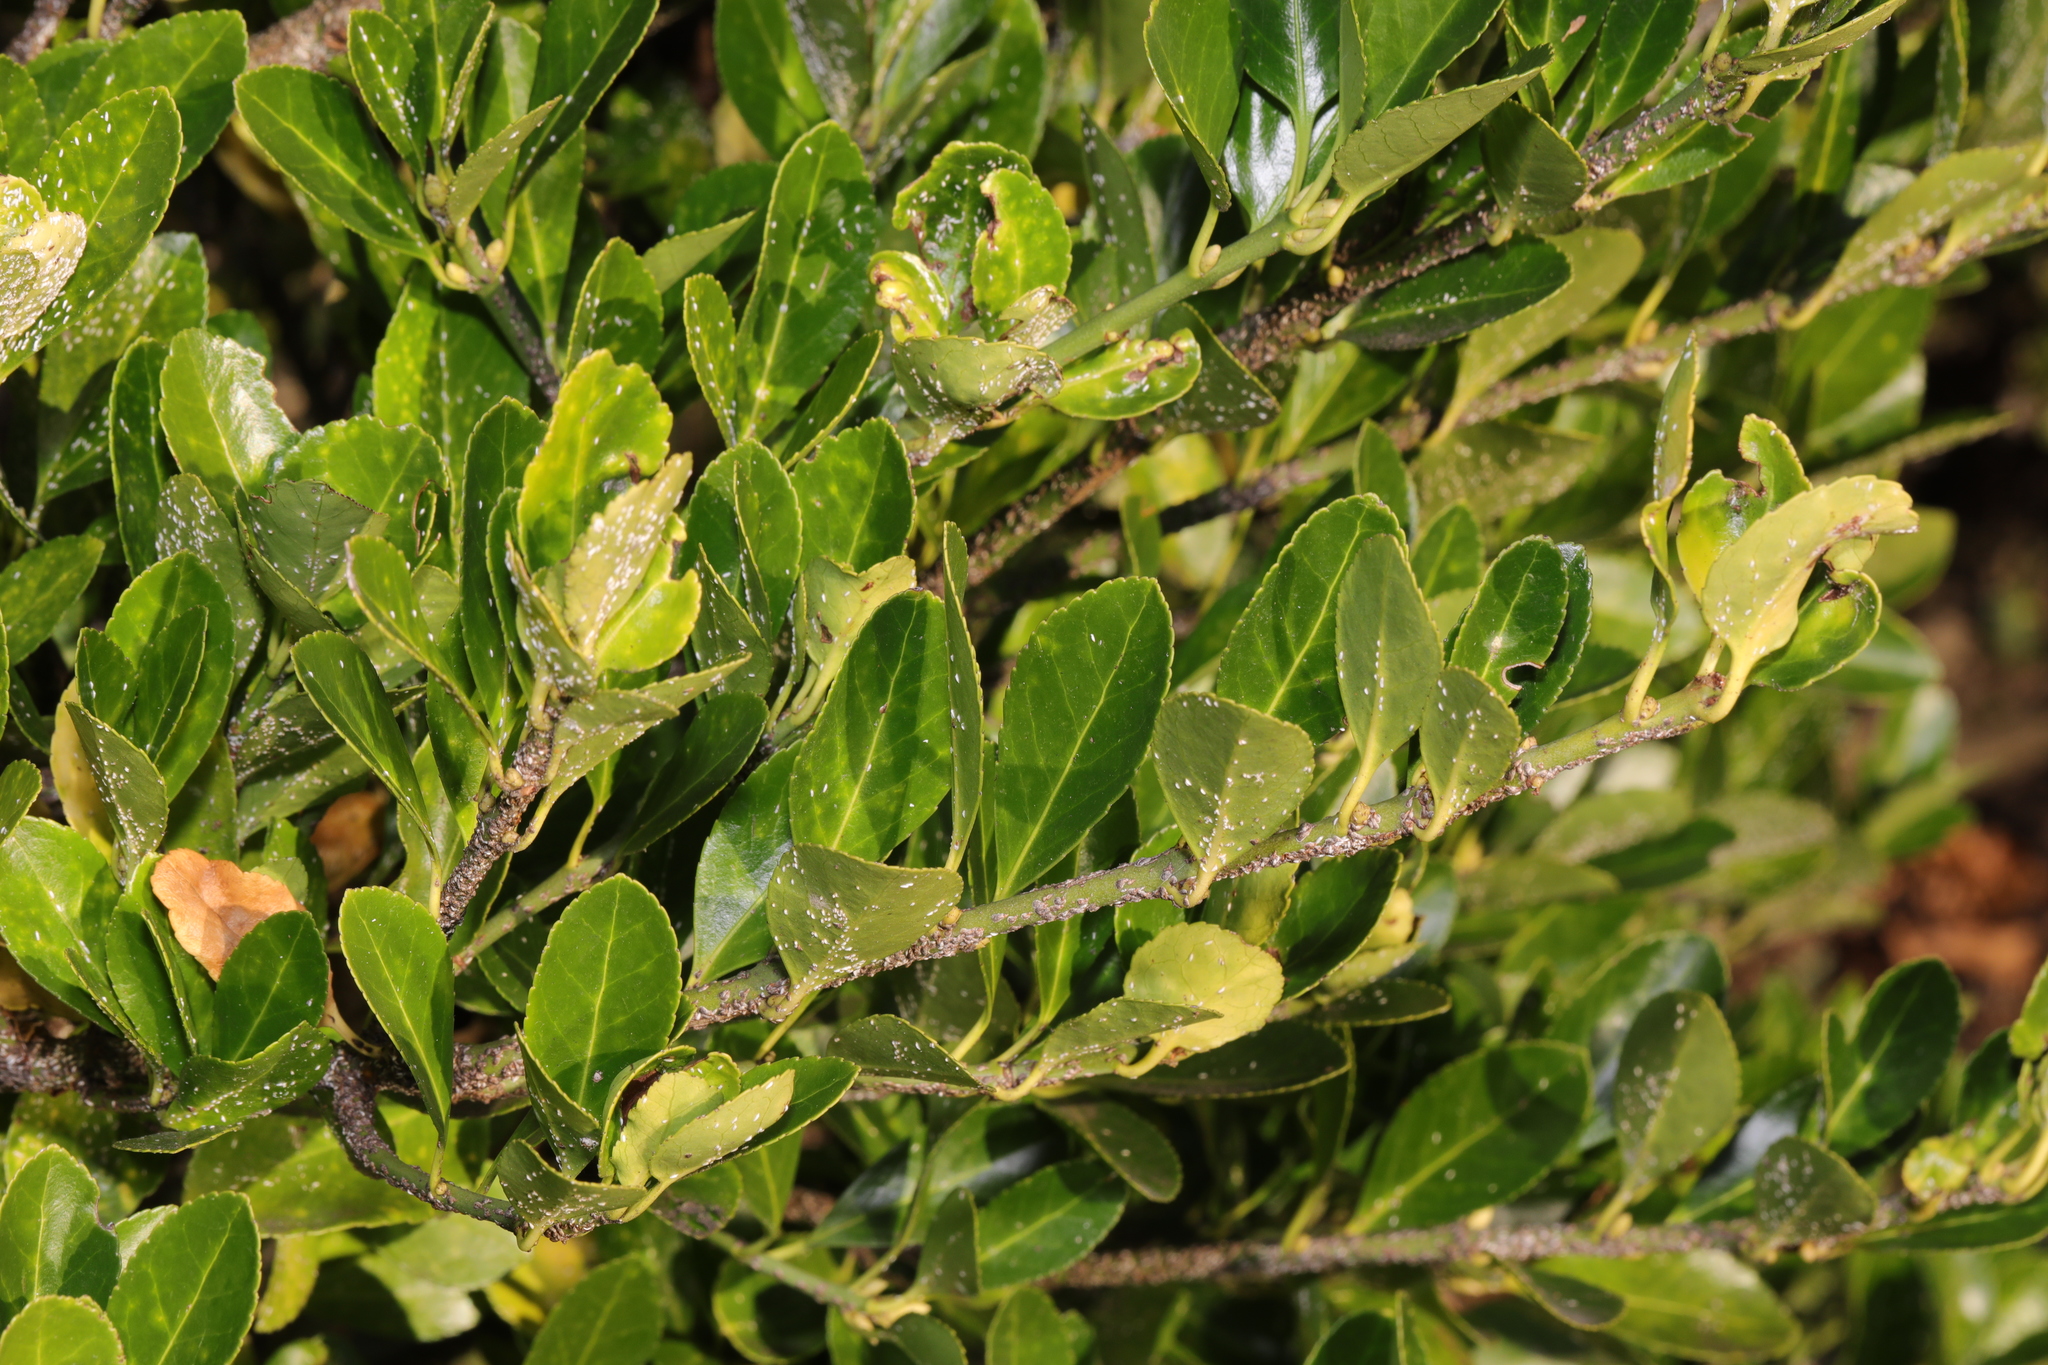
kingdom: Plantae
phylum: Tracheophyta
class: Magnoliopsida
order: Celastrales
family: Celastraceae
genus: Euonymus
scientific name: Euonymus japonicus
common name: Japanese spindletree
